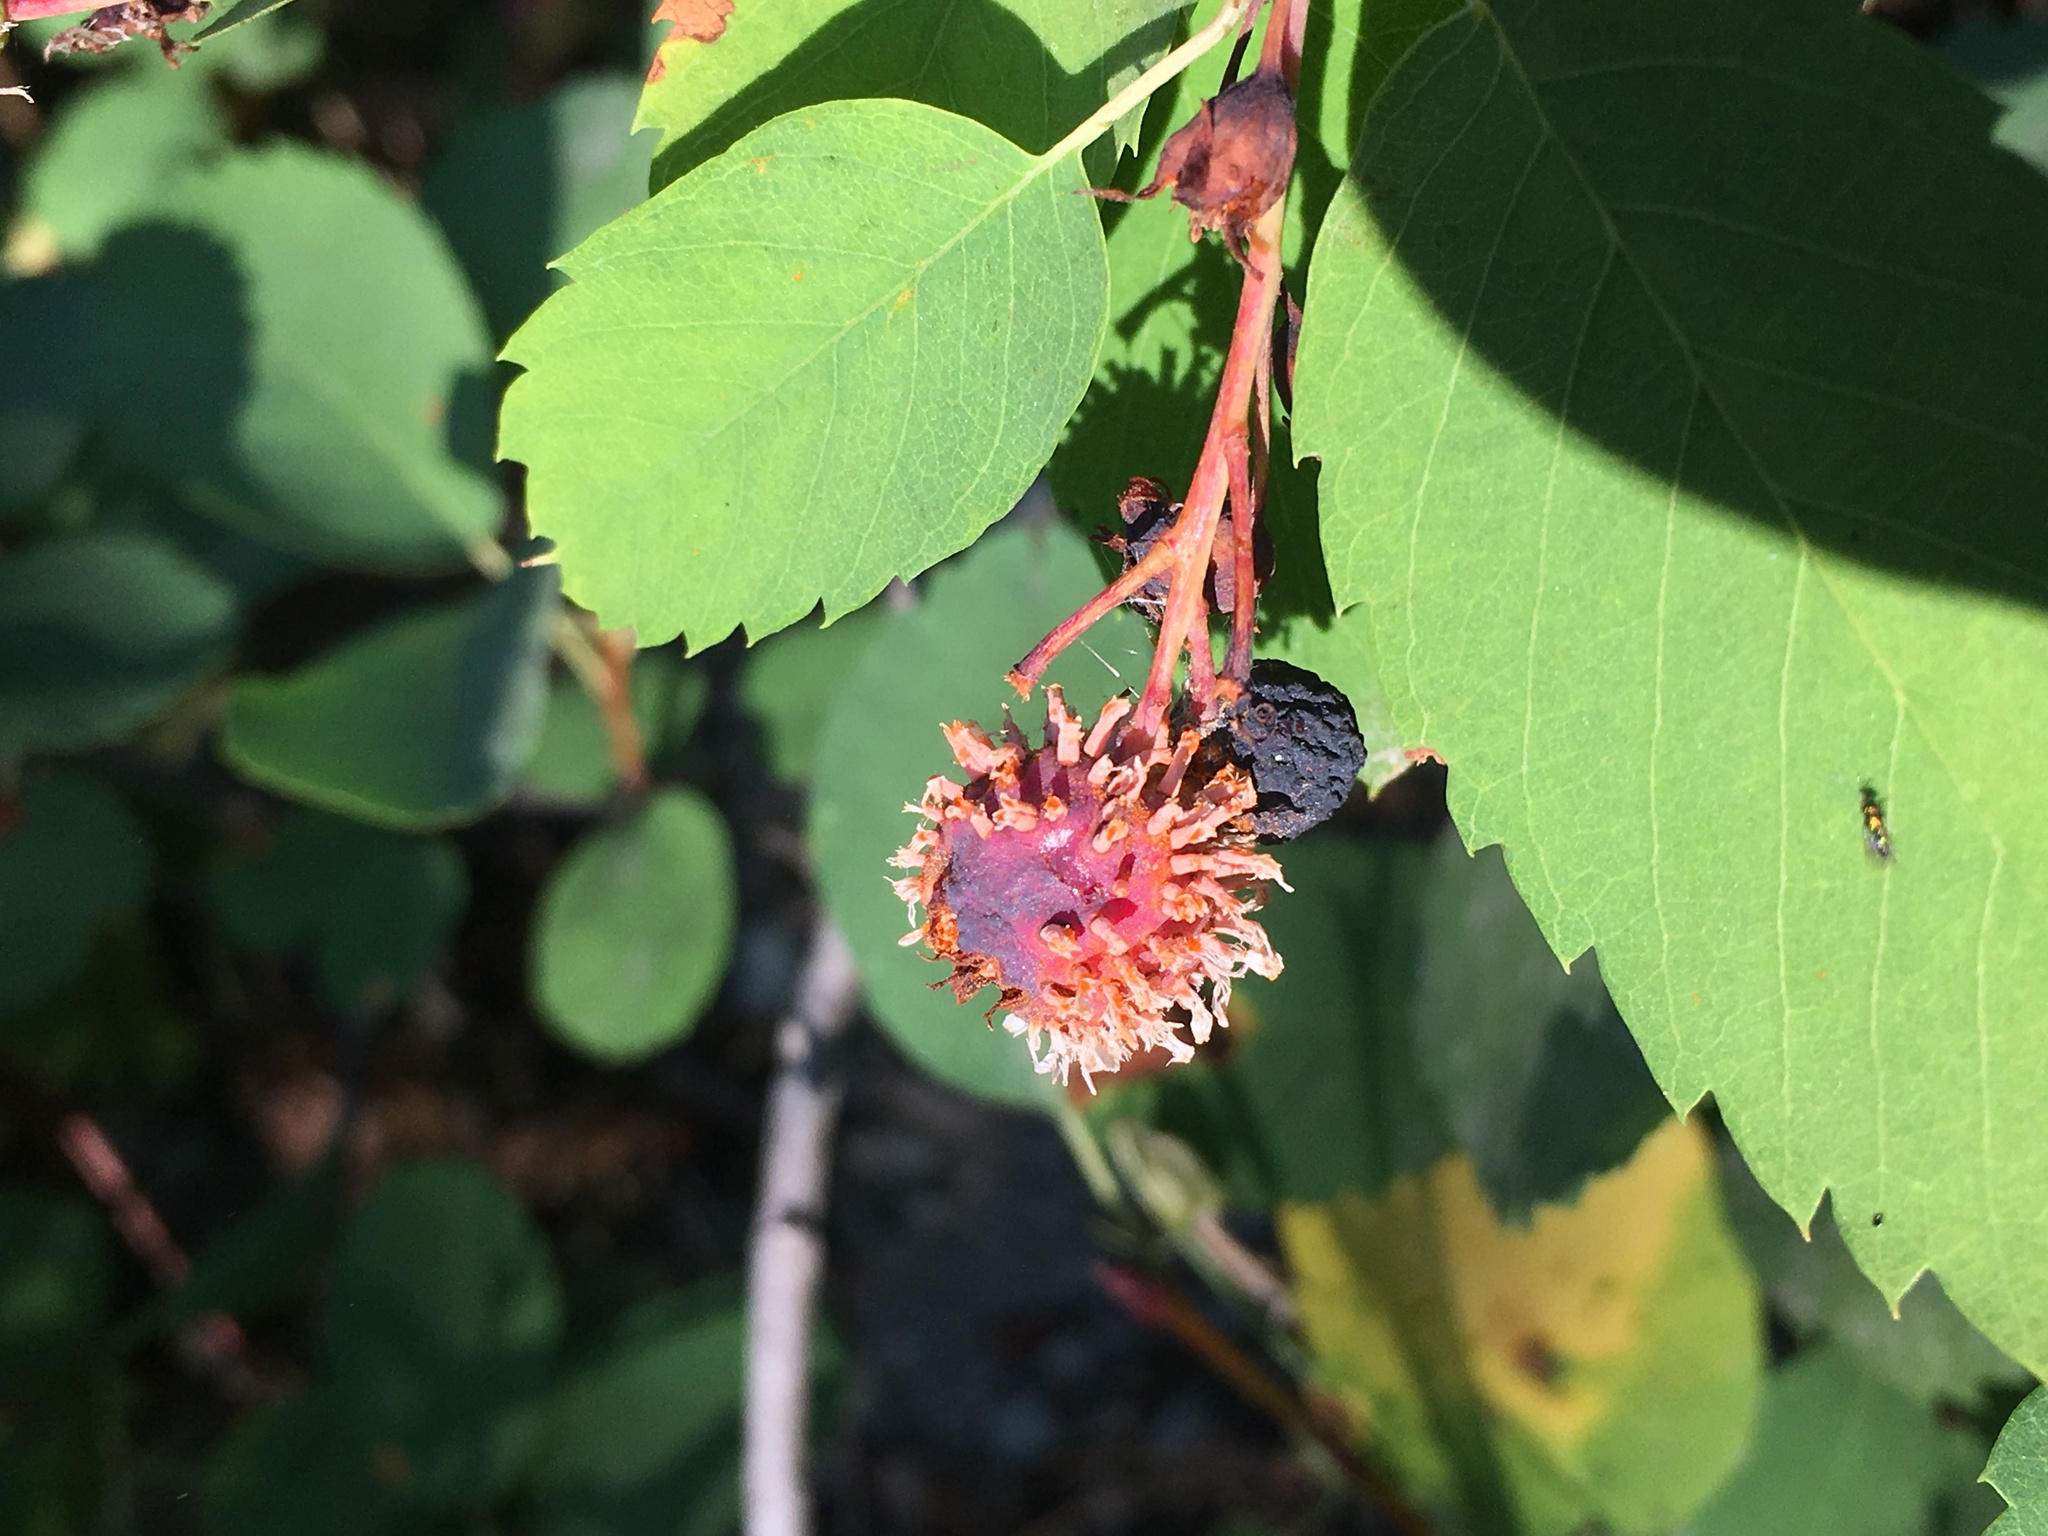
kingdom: Plantae
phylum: Tracheophyta
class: Magnoliopsida
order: Rosales
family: Rosaceae
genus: Amelanchier
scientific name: Amelanchier alnifolia
